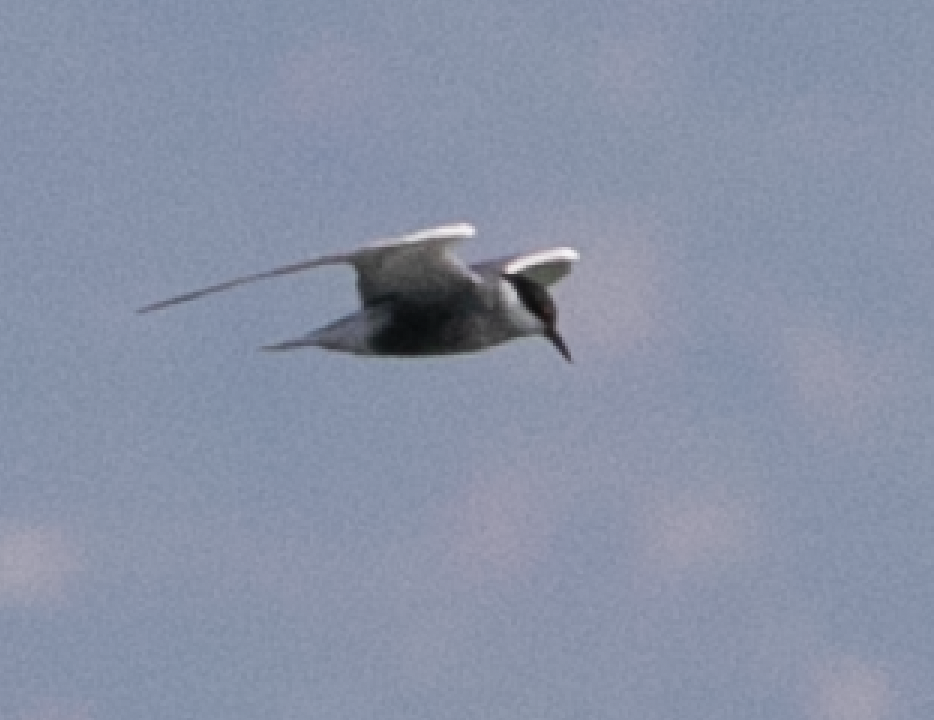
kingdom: Animalia
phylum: Chordata
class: Aves
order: Charadriiformes
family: Laridae
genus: Chlidonias
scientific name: Chlidonias hybrida
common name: Whiskered tern
